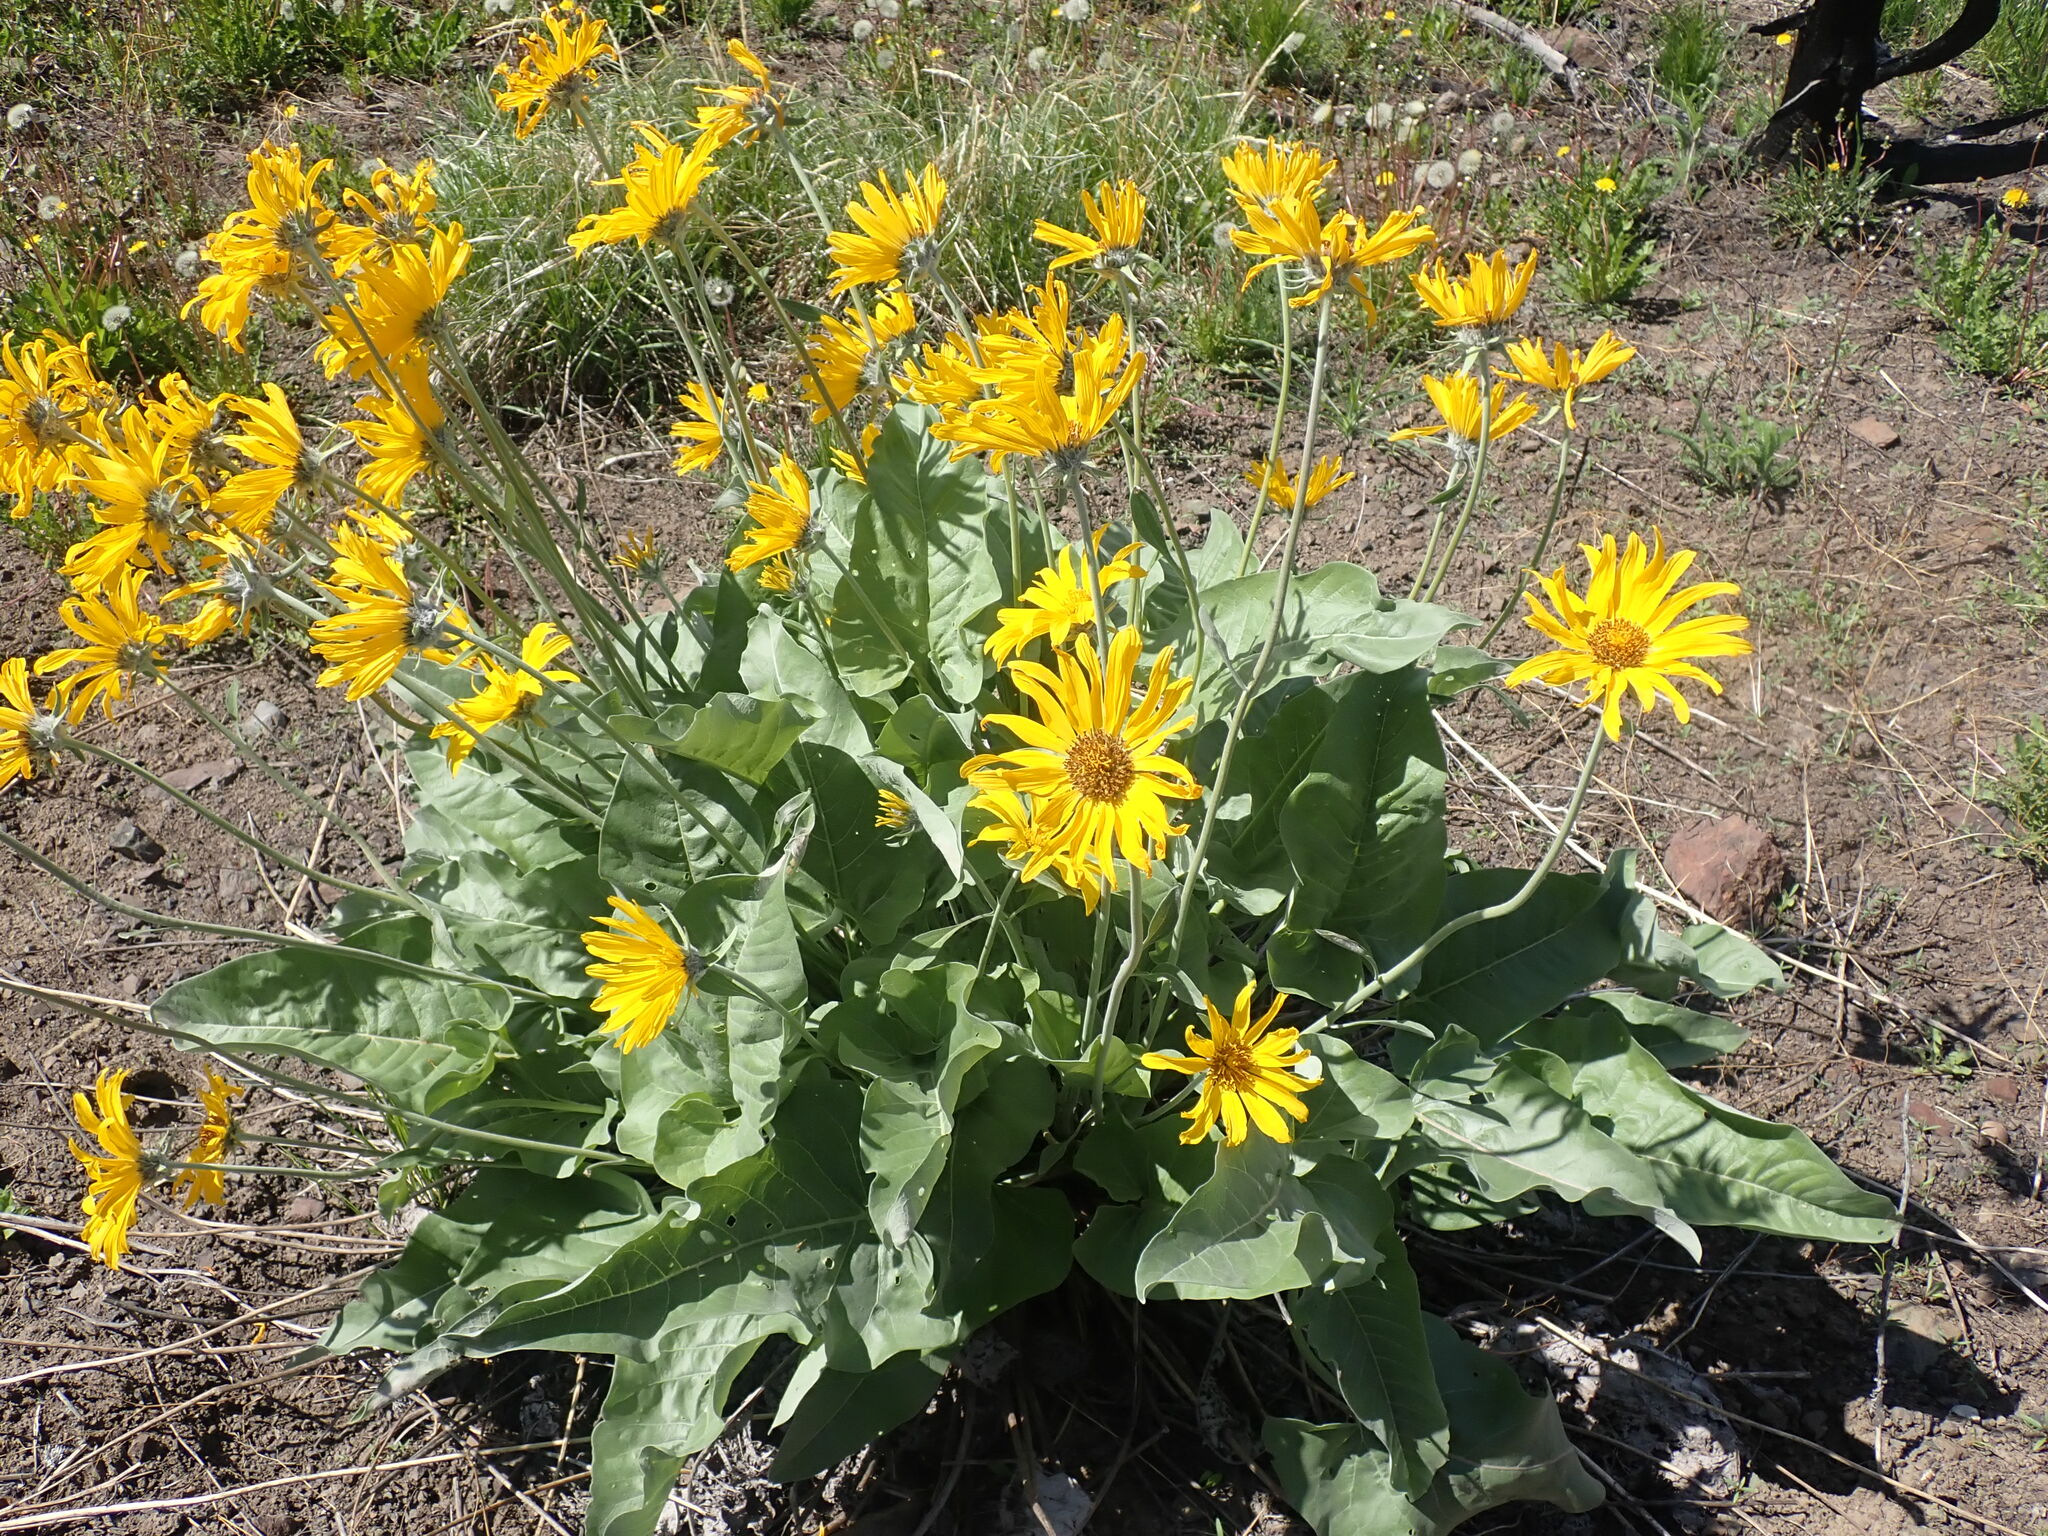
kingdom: Plantae
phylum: Tracheophyta
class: Magnoliopsida
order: Asterales
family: Asteraceae
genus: Wyethia
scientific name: Wyethia sagittata
